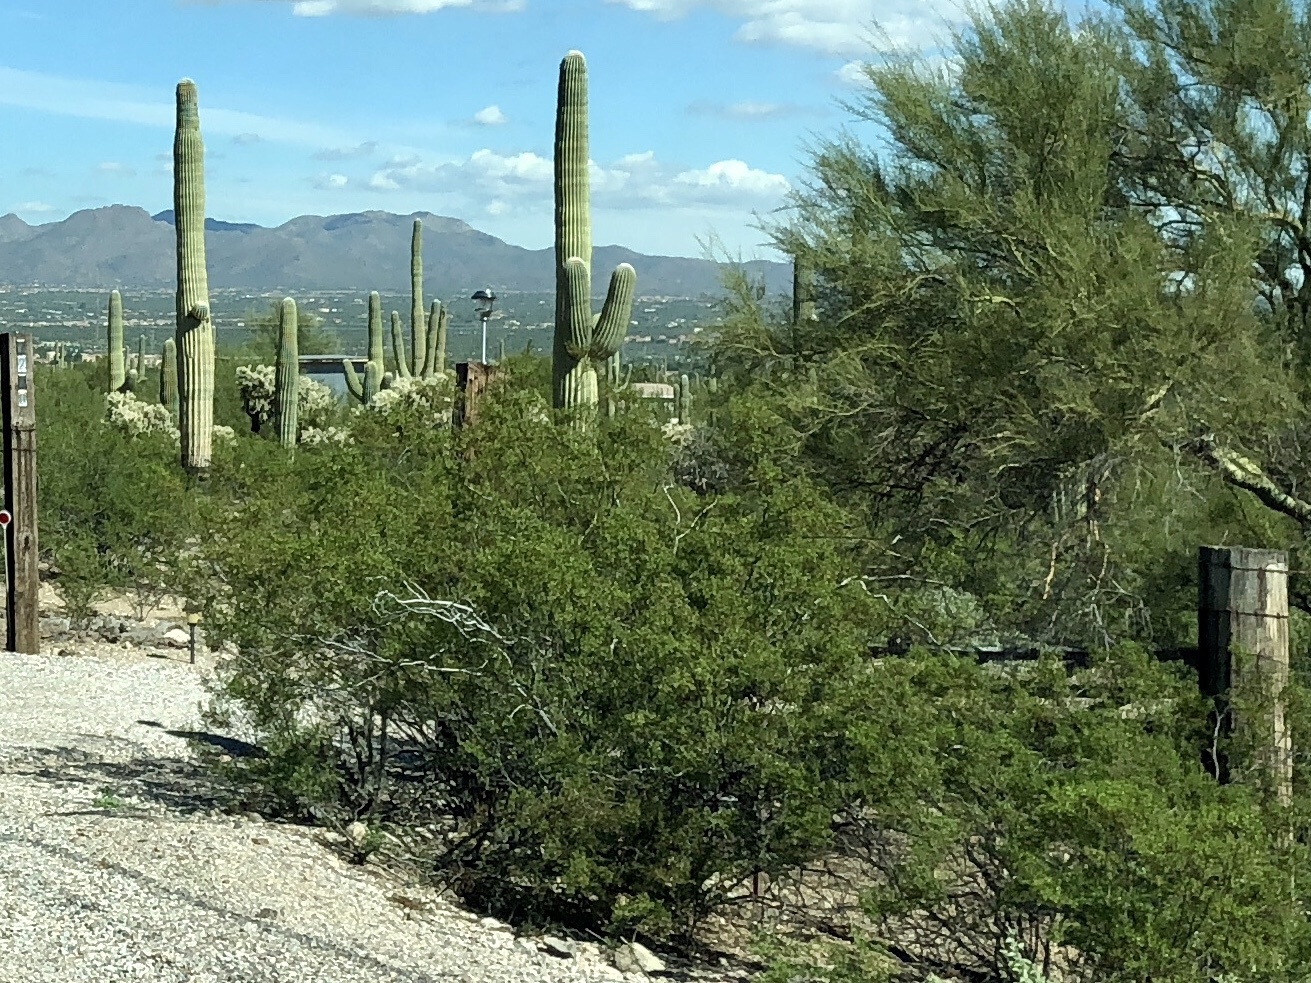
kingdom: Plantae
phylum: Tracheophyta
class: Magnoliopsida
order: Zygophyllales
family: Zygophyllaceae
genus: Larrea
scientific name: Larrea tridentata
